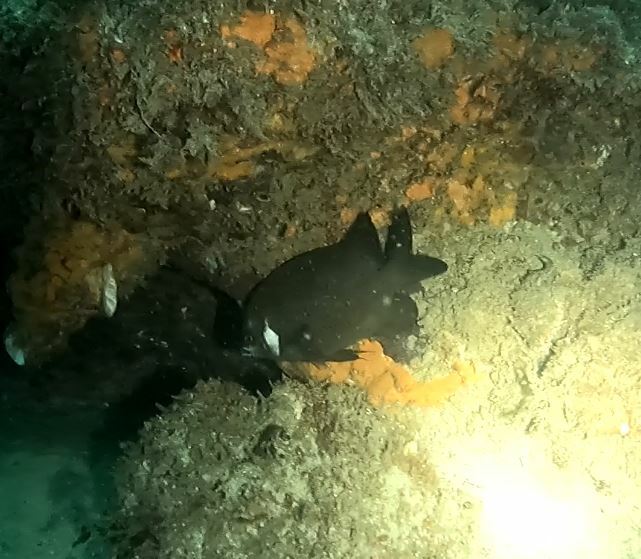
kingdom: Animalia
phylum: Chordata
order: Perciformes
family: Pomacentridae
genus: Parma
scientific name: Parma microlepis
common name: White-ear
